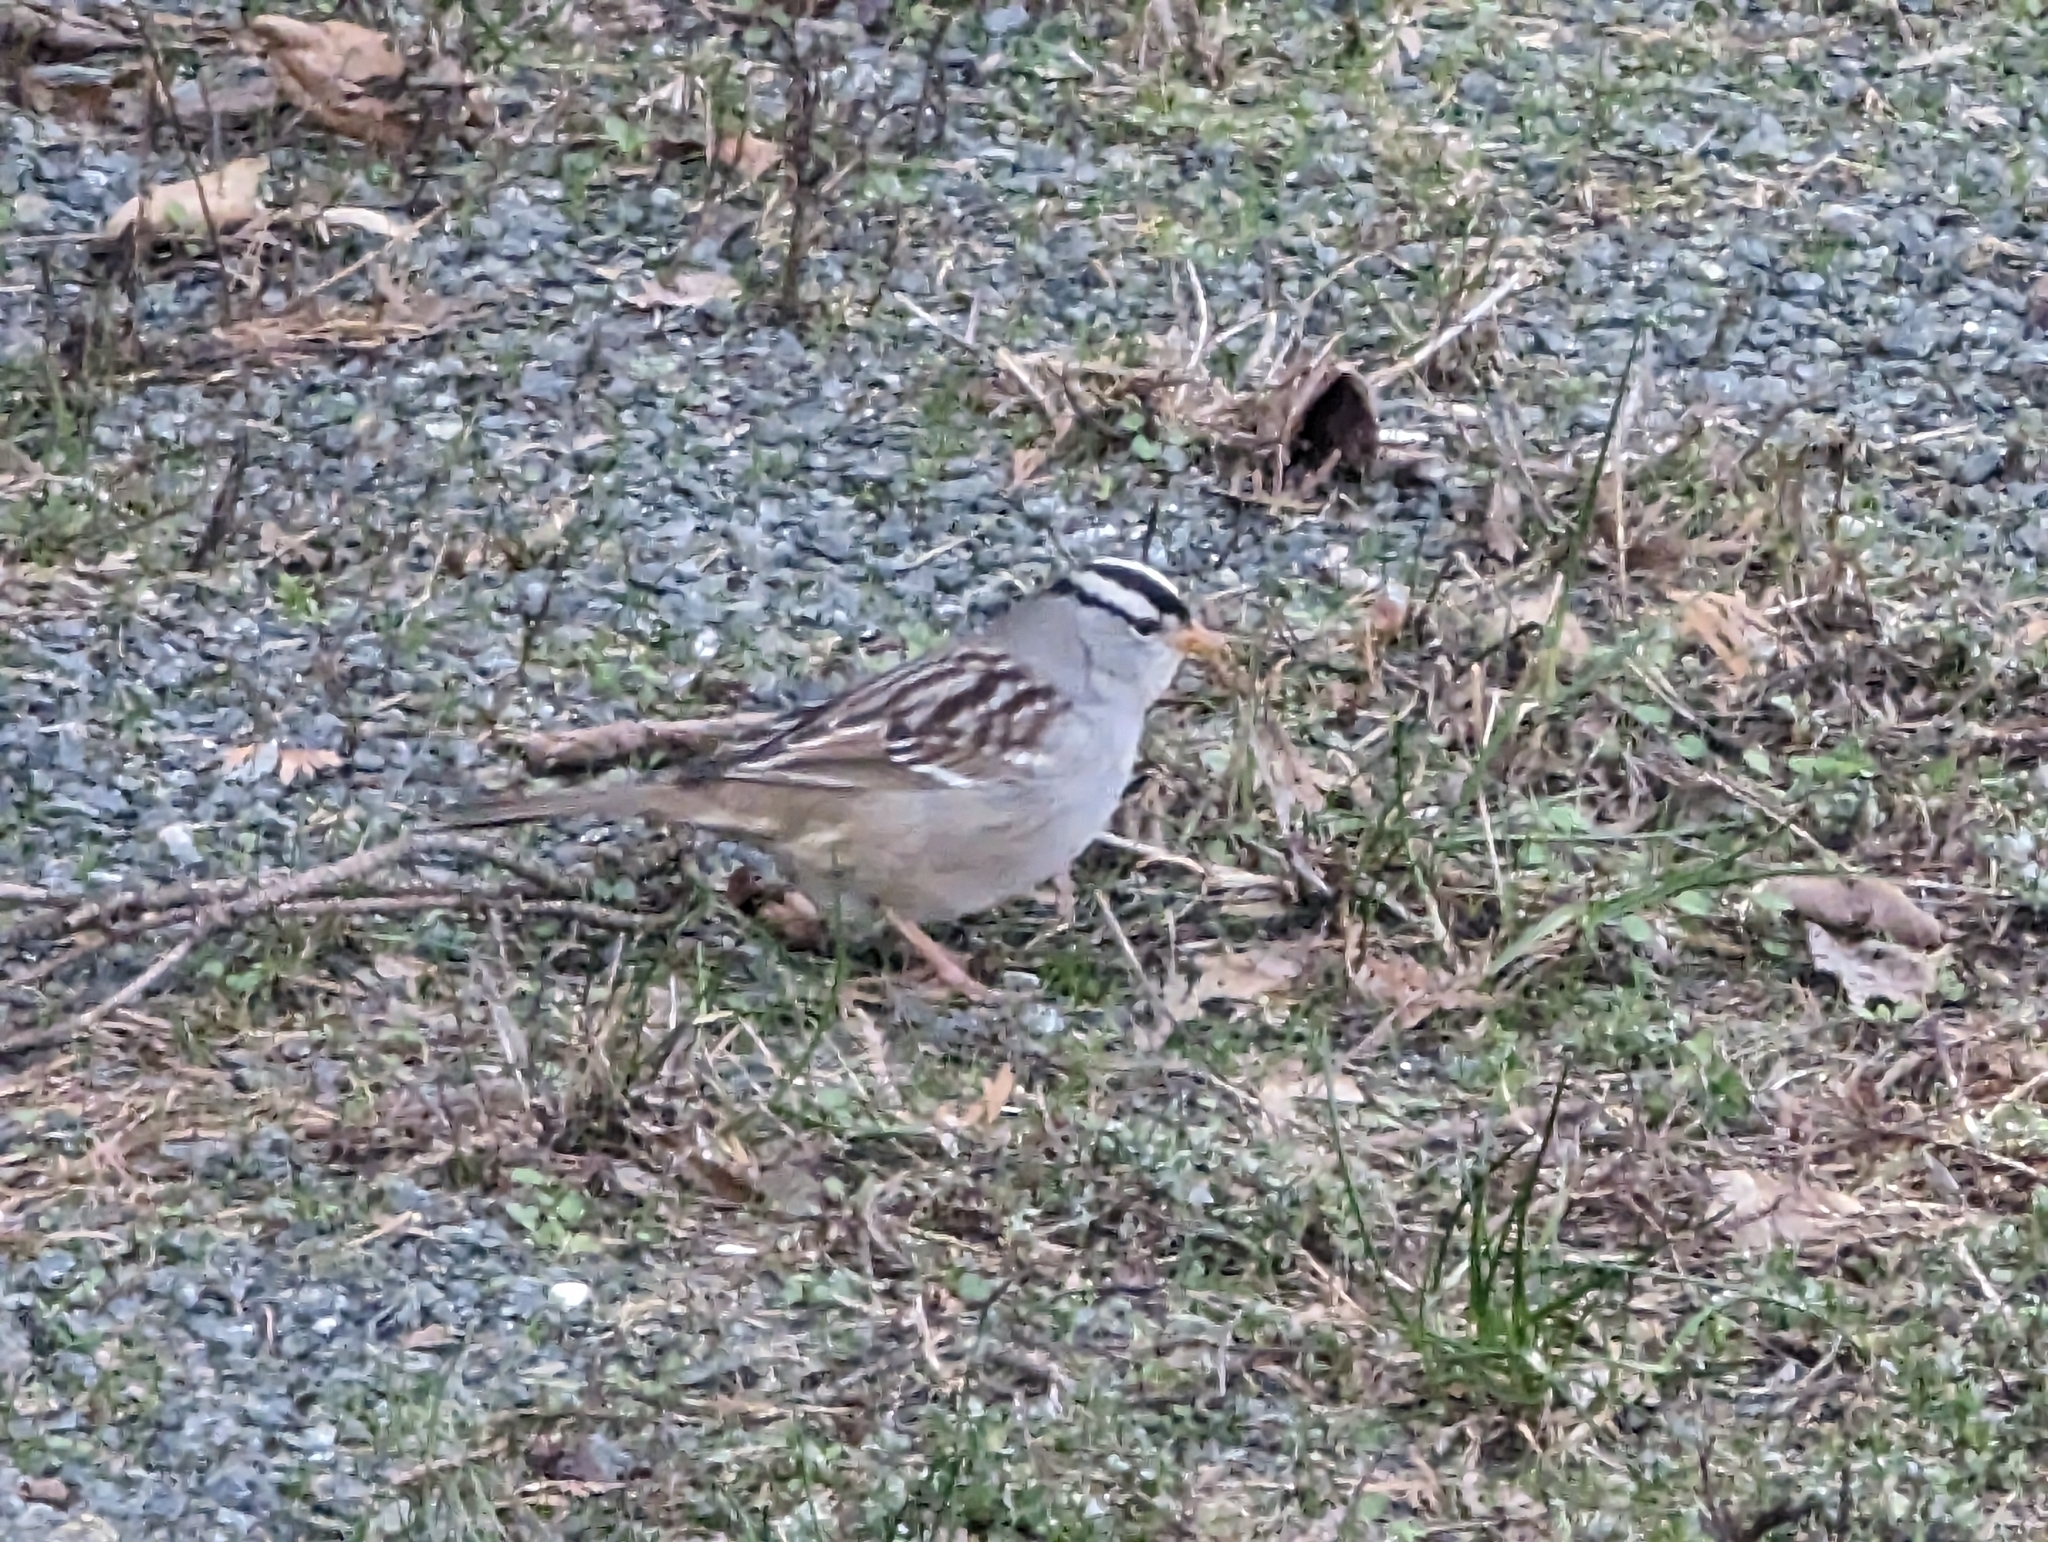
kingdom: Animalia
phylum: Chordata
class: Aves
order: Passeriformes
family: Passerellidae
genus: Zonotrichia
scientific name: Zonotrichia leucophrys
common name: White-crowned sparrow
